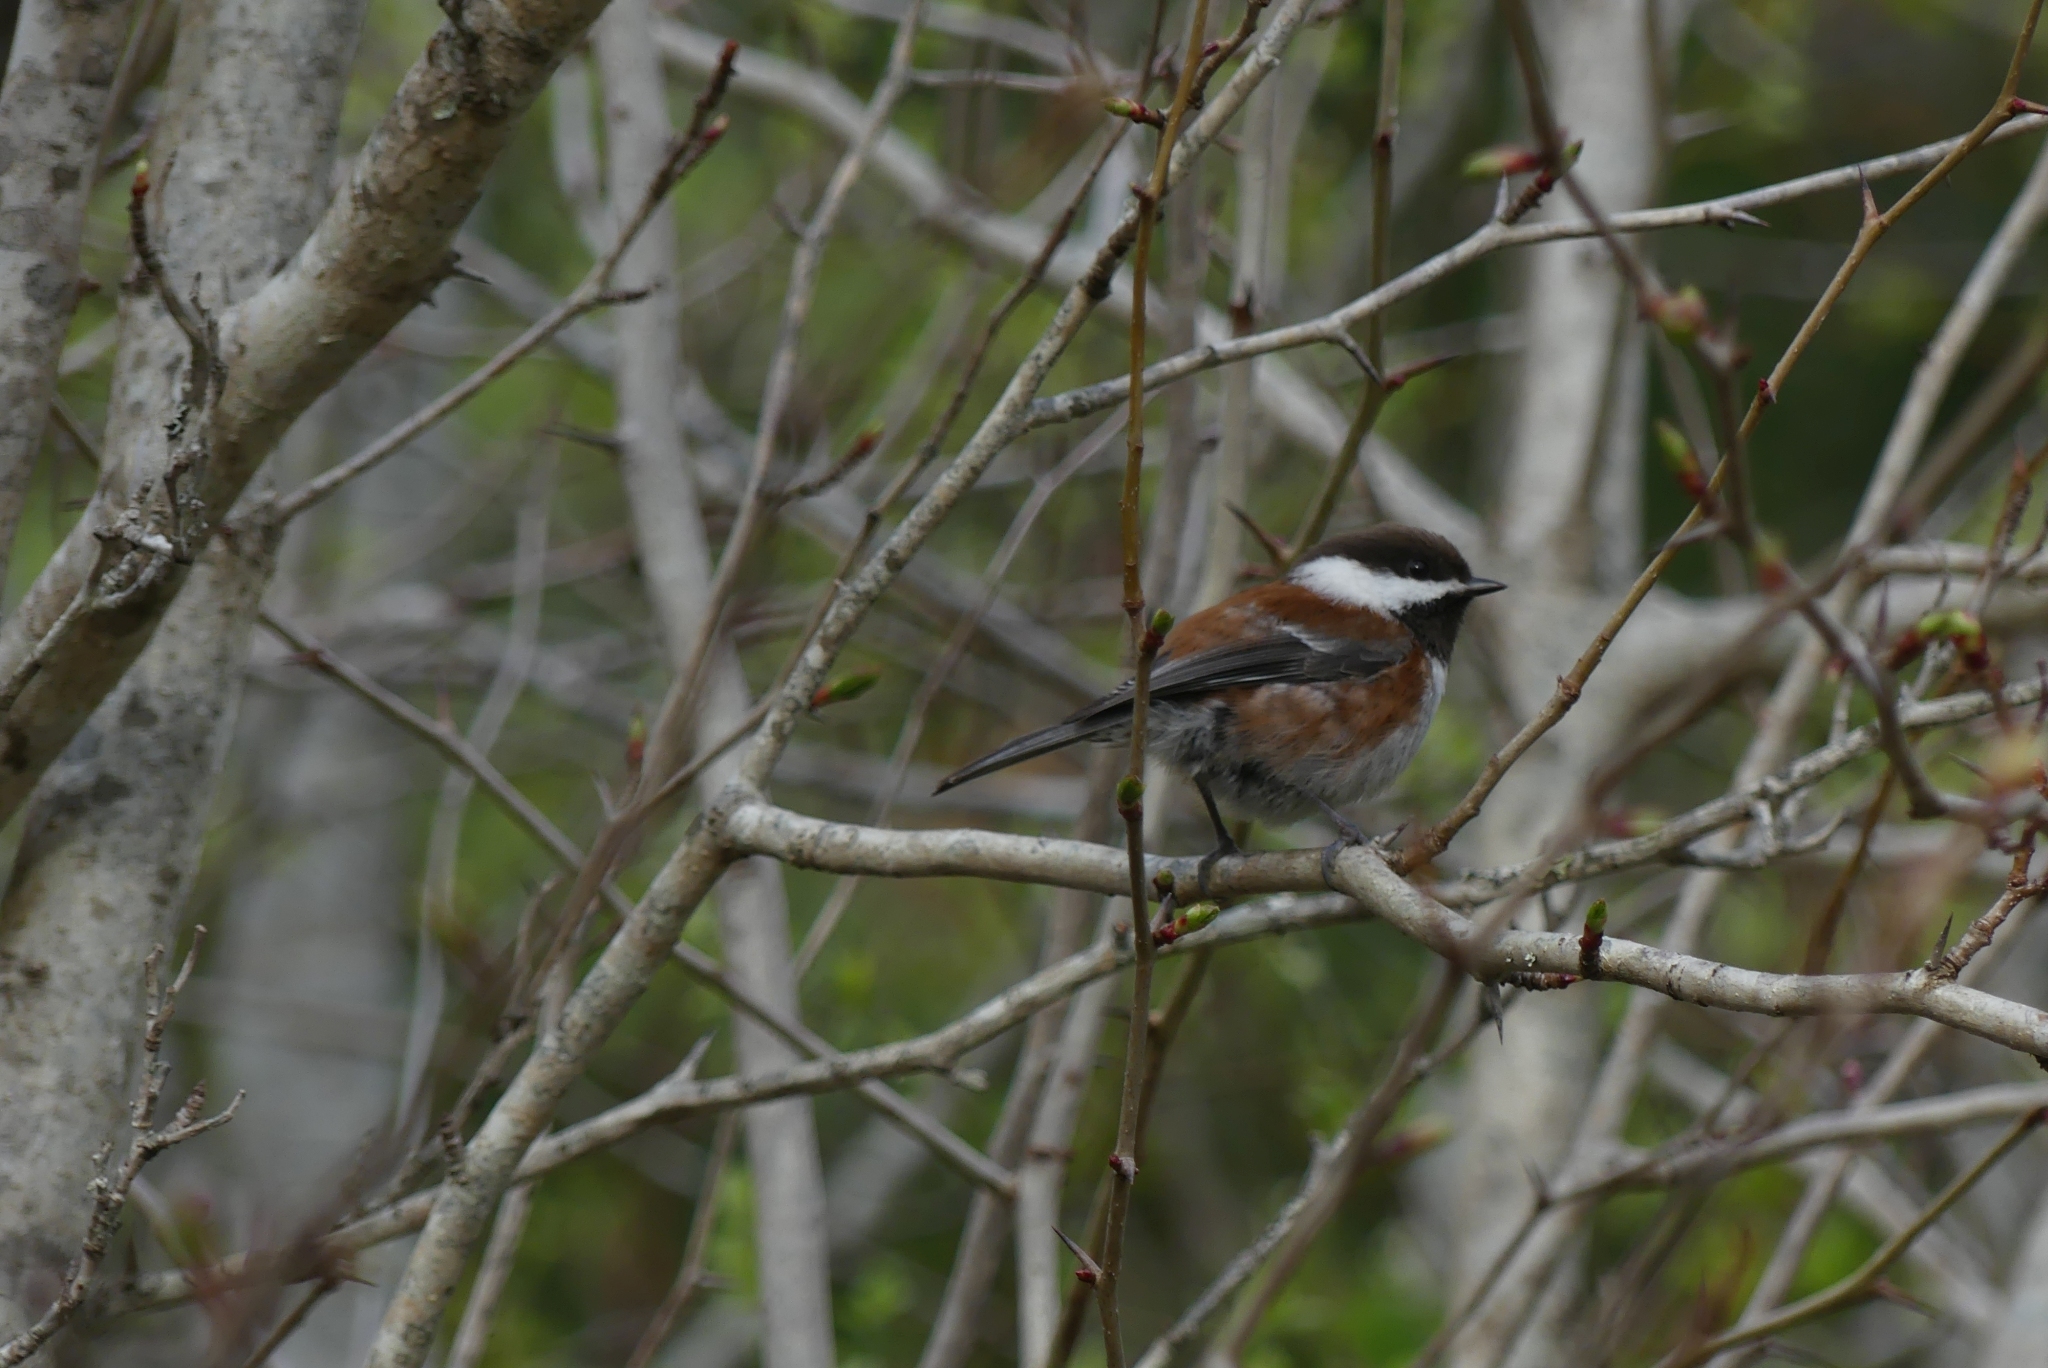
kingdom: Animalia
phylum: Chordata
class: Aves
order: Passeriformes
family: Paridae
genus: Poecile
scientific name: Poecile rufescens
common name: Chestnut-backed chickadee
